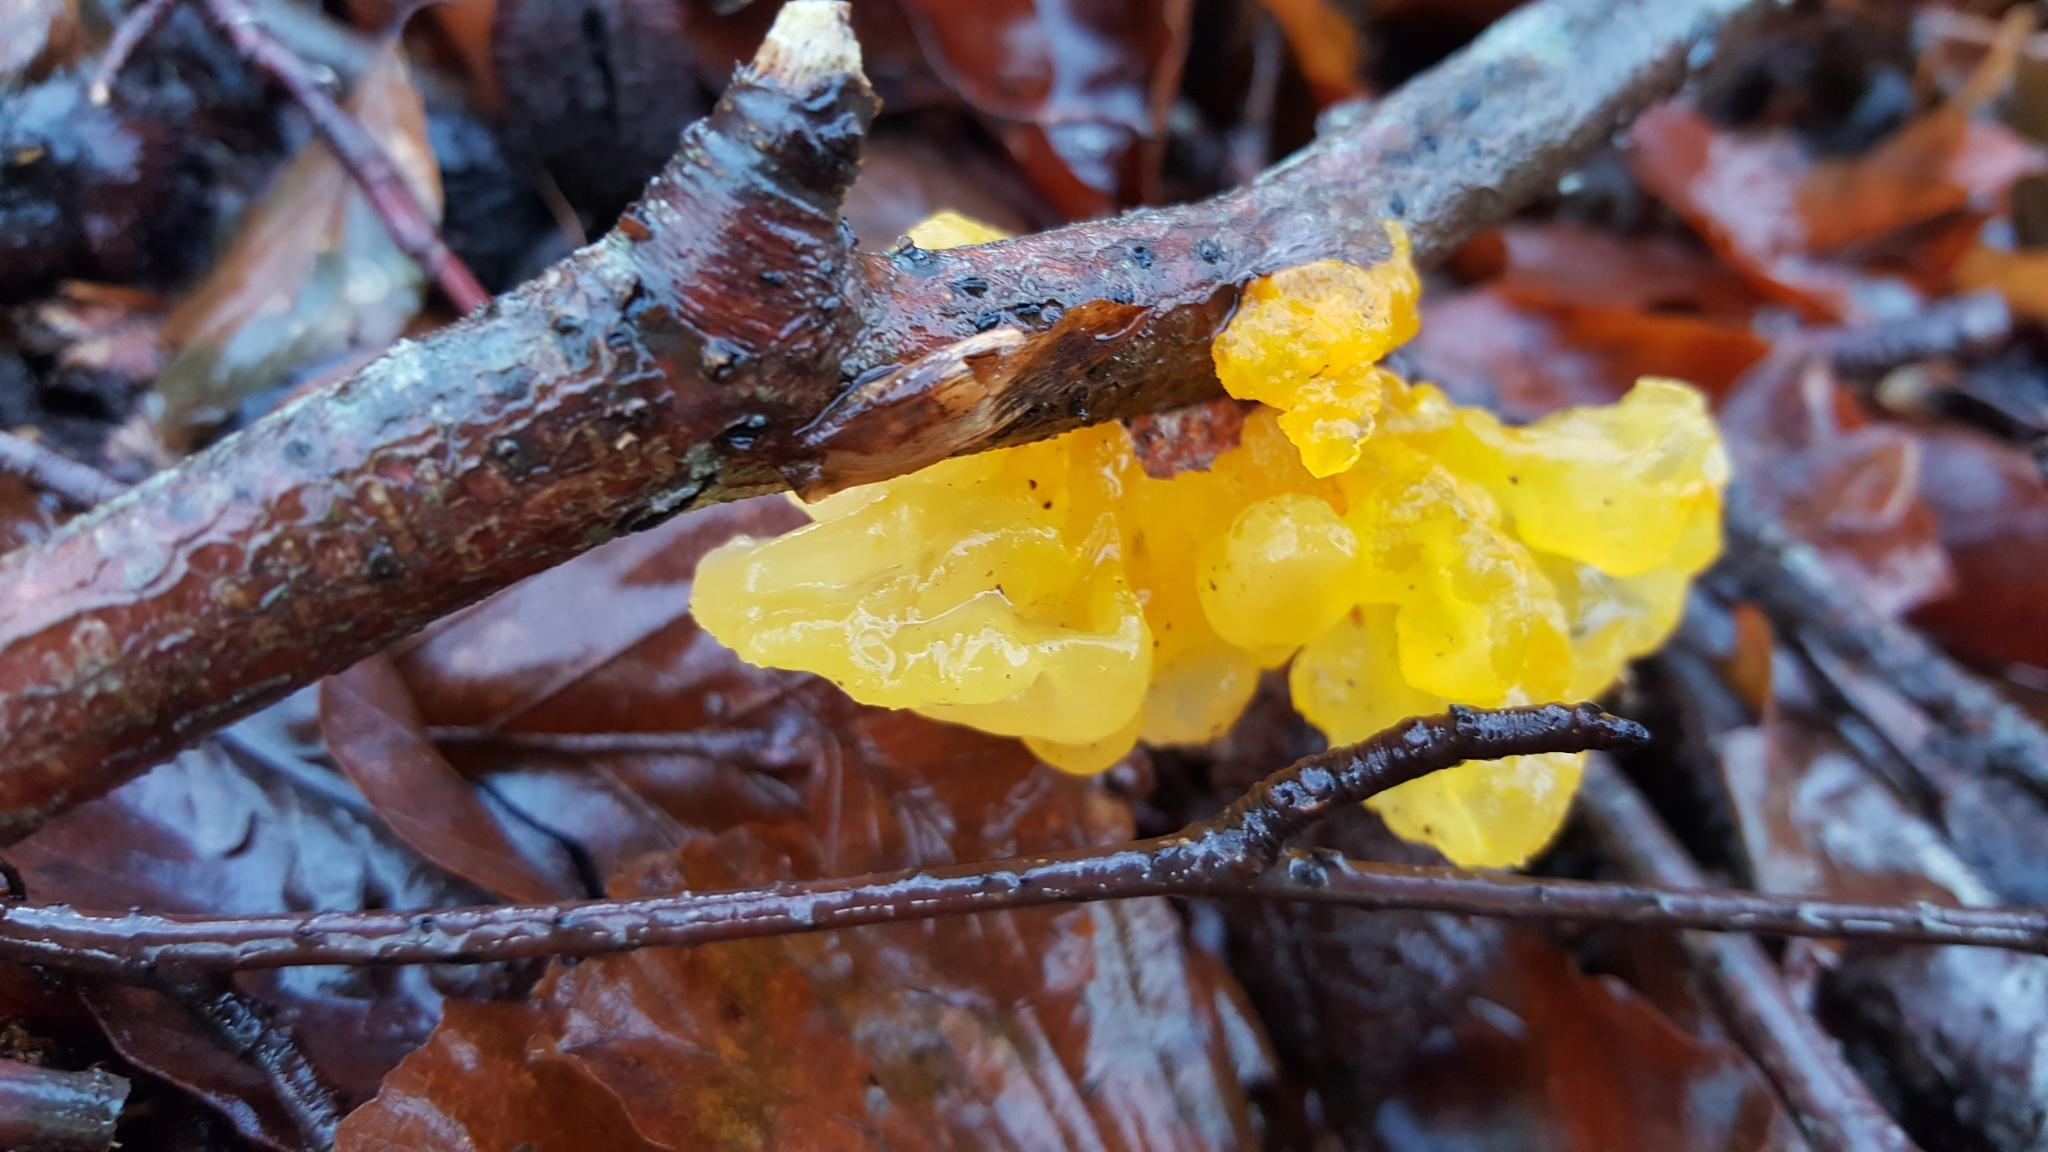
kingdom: Fungi
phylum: Basidiomycota
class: Tremellomycetes
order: Tremellales
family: Tremellaceae
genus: Tremella
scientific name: Tremella mesenterica
